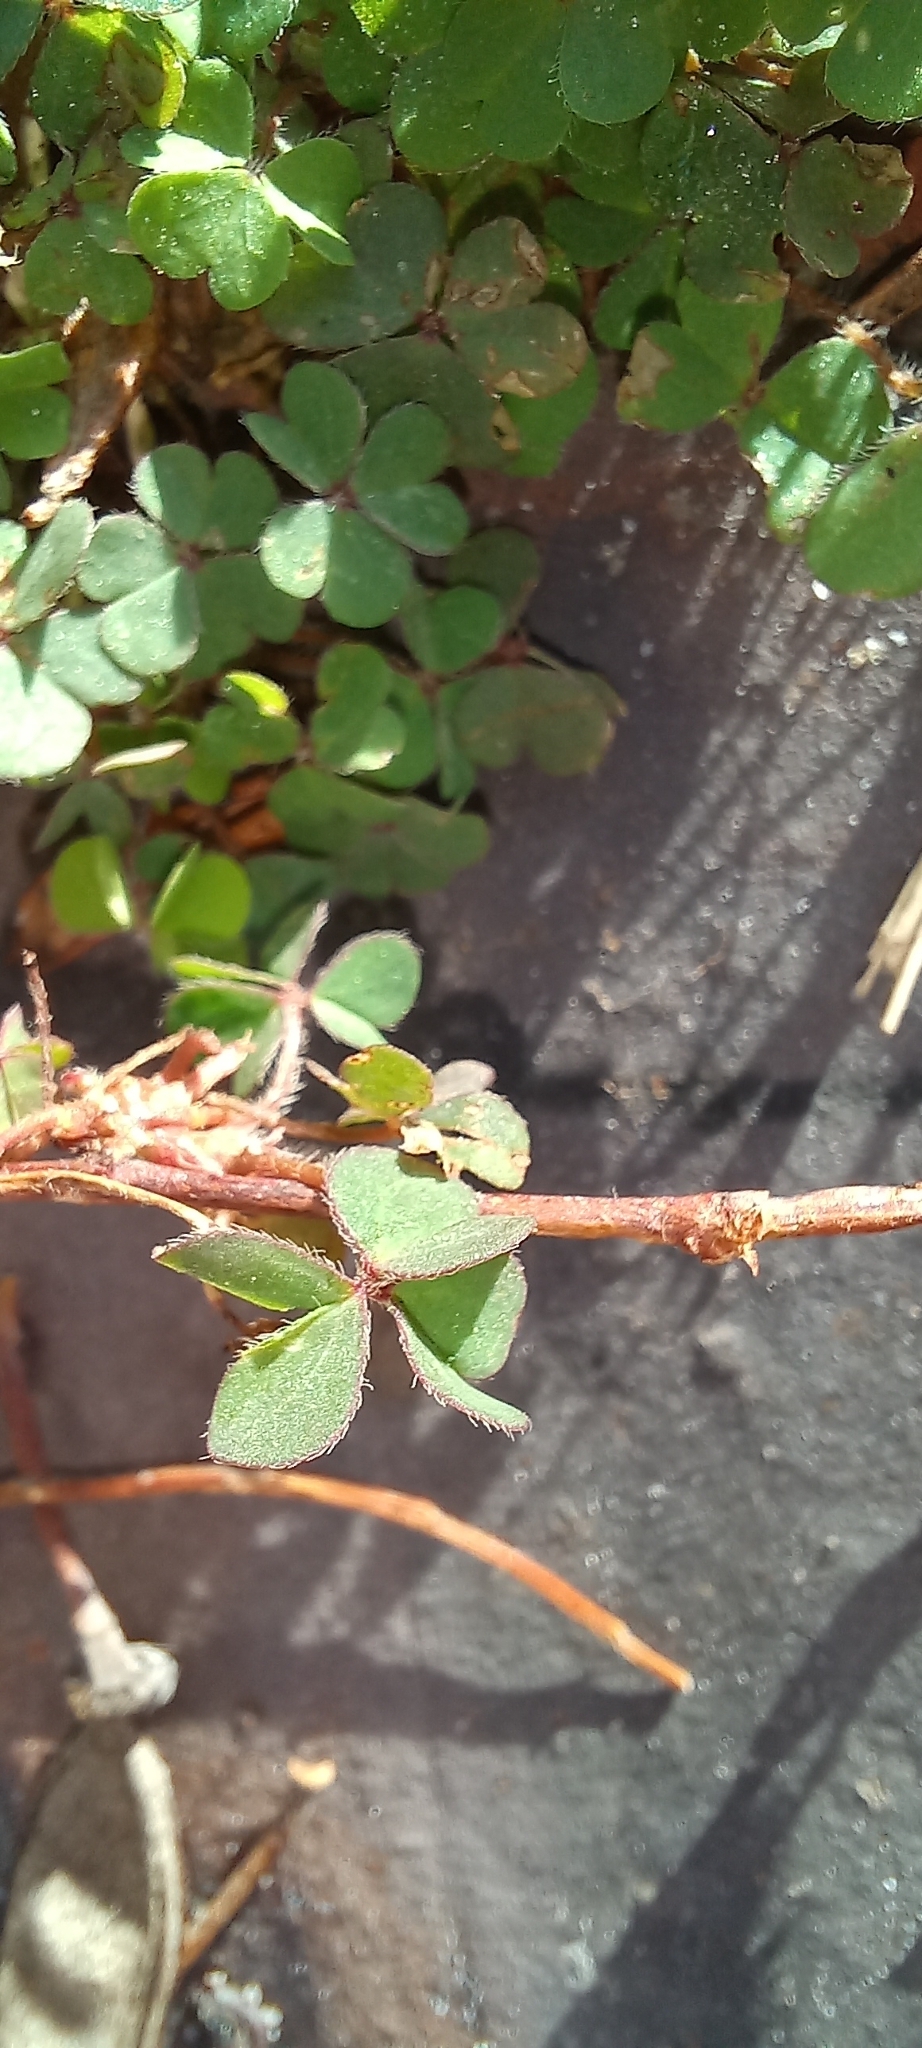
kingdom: Plantae
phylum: Tracheophyta
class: Magnoliopsida
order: Oxalidales
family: Oxalidaceae
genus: Oxalis
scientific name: Oxalis corniculata
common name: Procumbent yellow-sorrel
